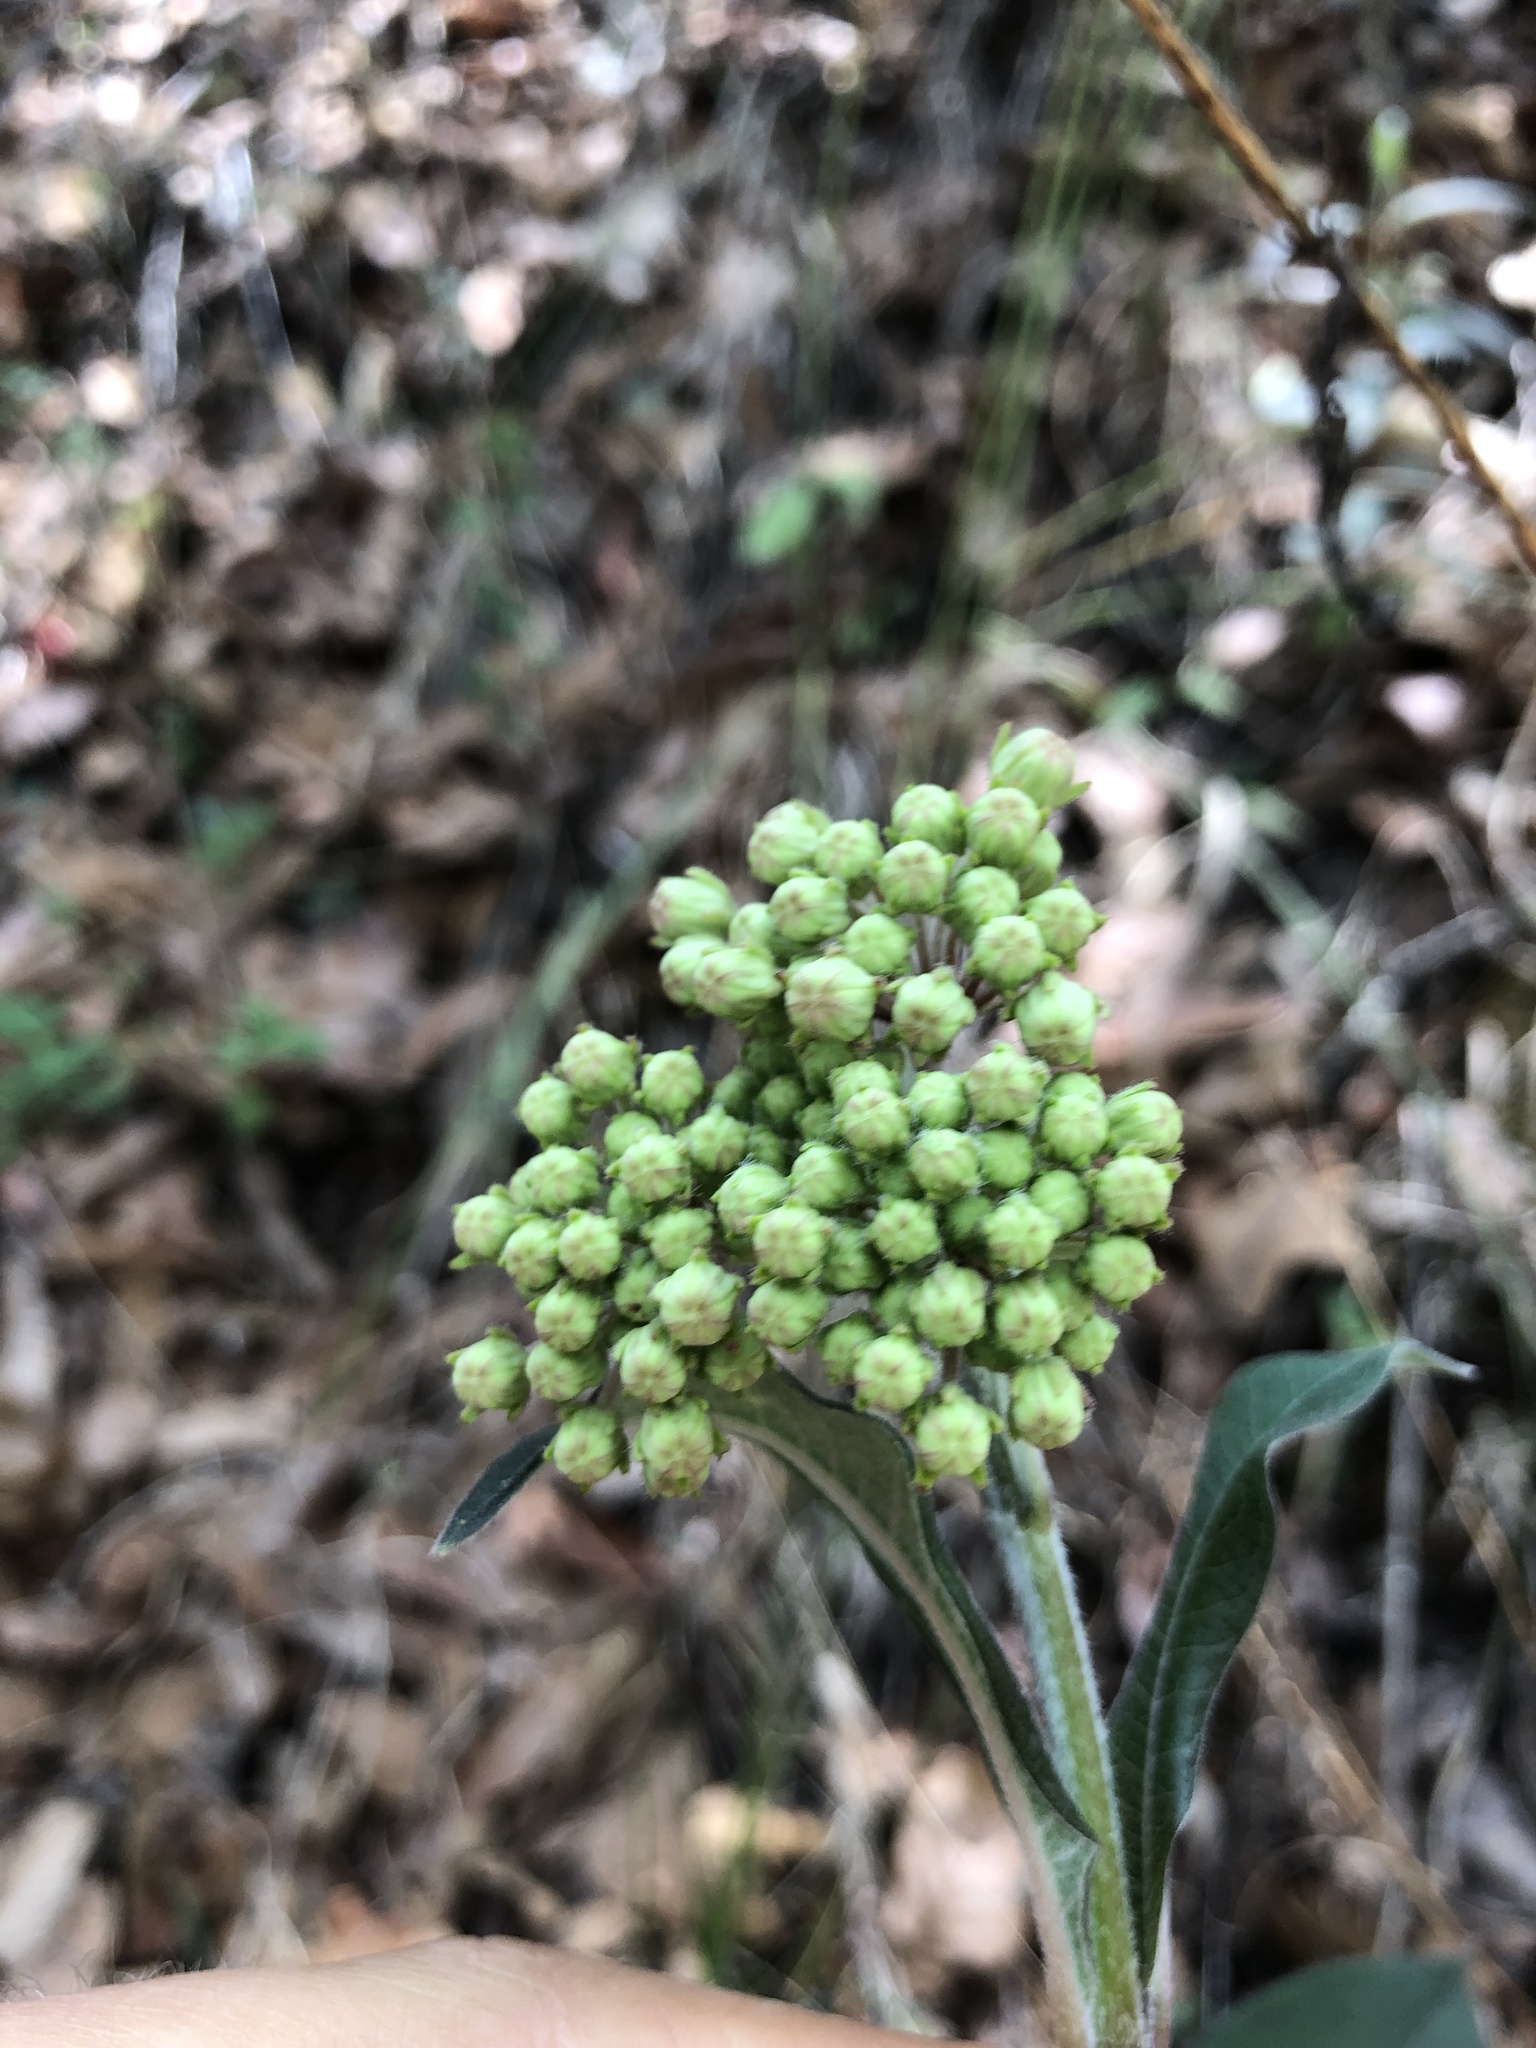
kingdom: Plantae
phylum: Tracheophyta
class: Magnoliopsida
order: Gentianales
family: Apocynaceae
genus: Asclepias
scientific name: Asclepias similis
